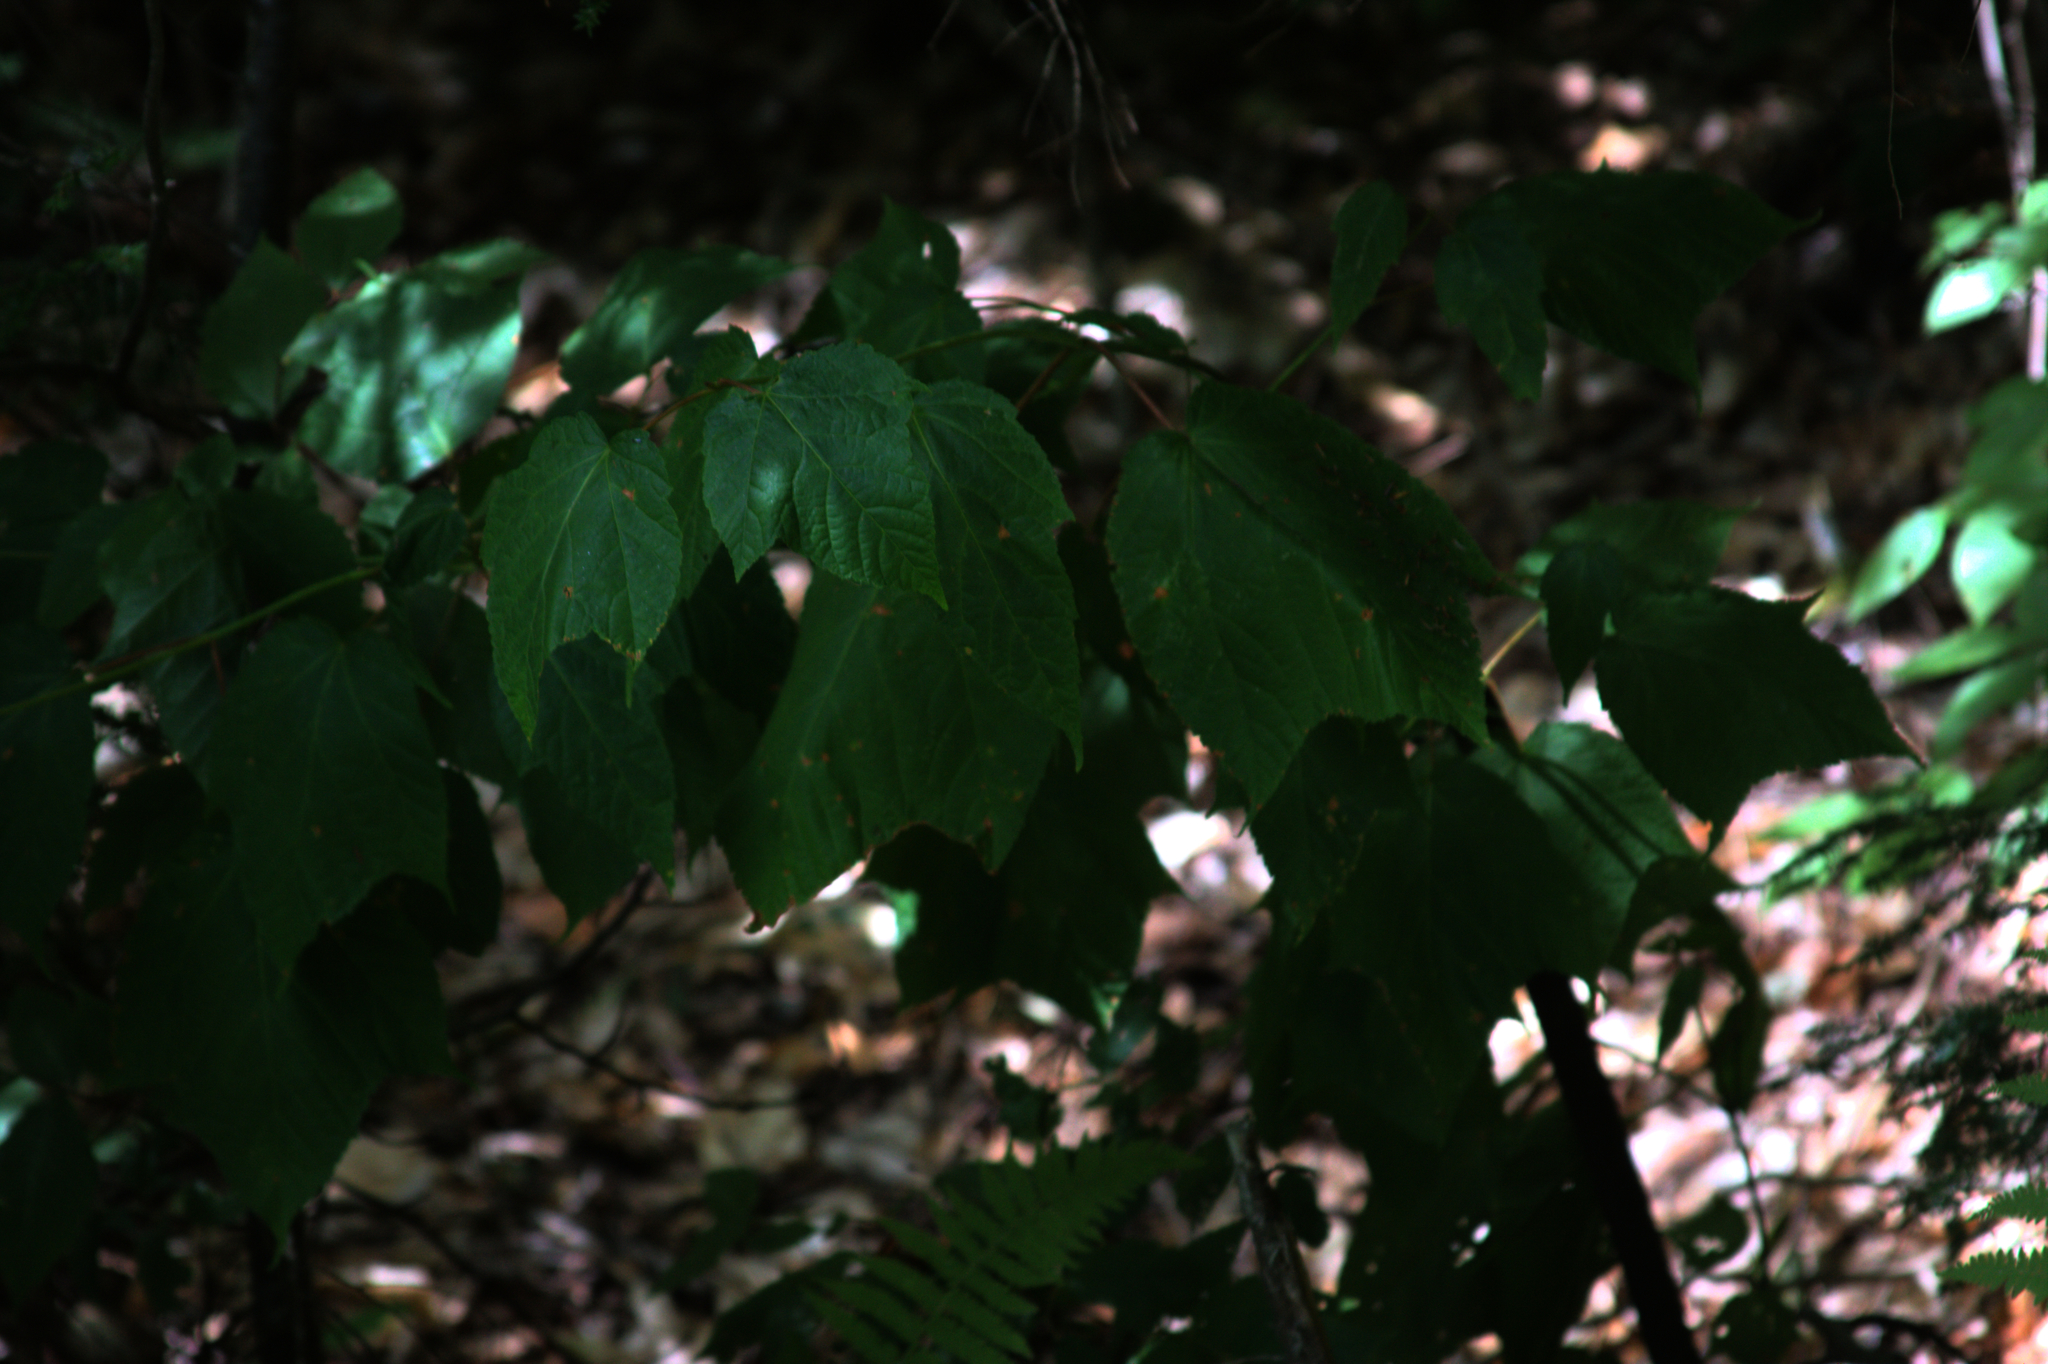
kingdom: Plantae
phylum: Tracheophyta
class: Magnoliopsida
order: Sapindales
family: Sapindaceae
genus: Acer
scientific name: Acer pensylvanicum
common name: Moosewood
